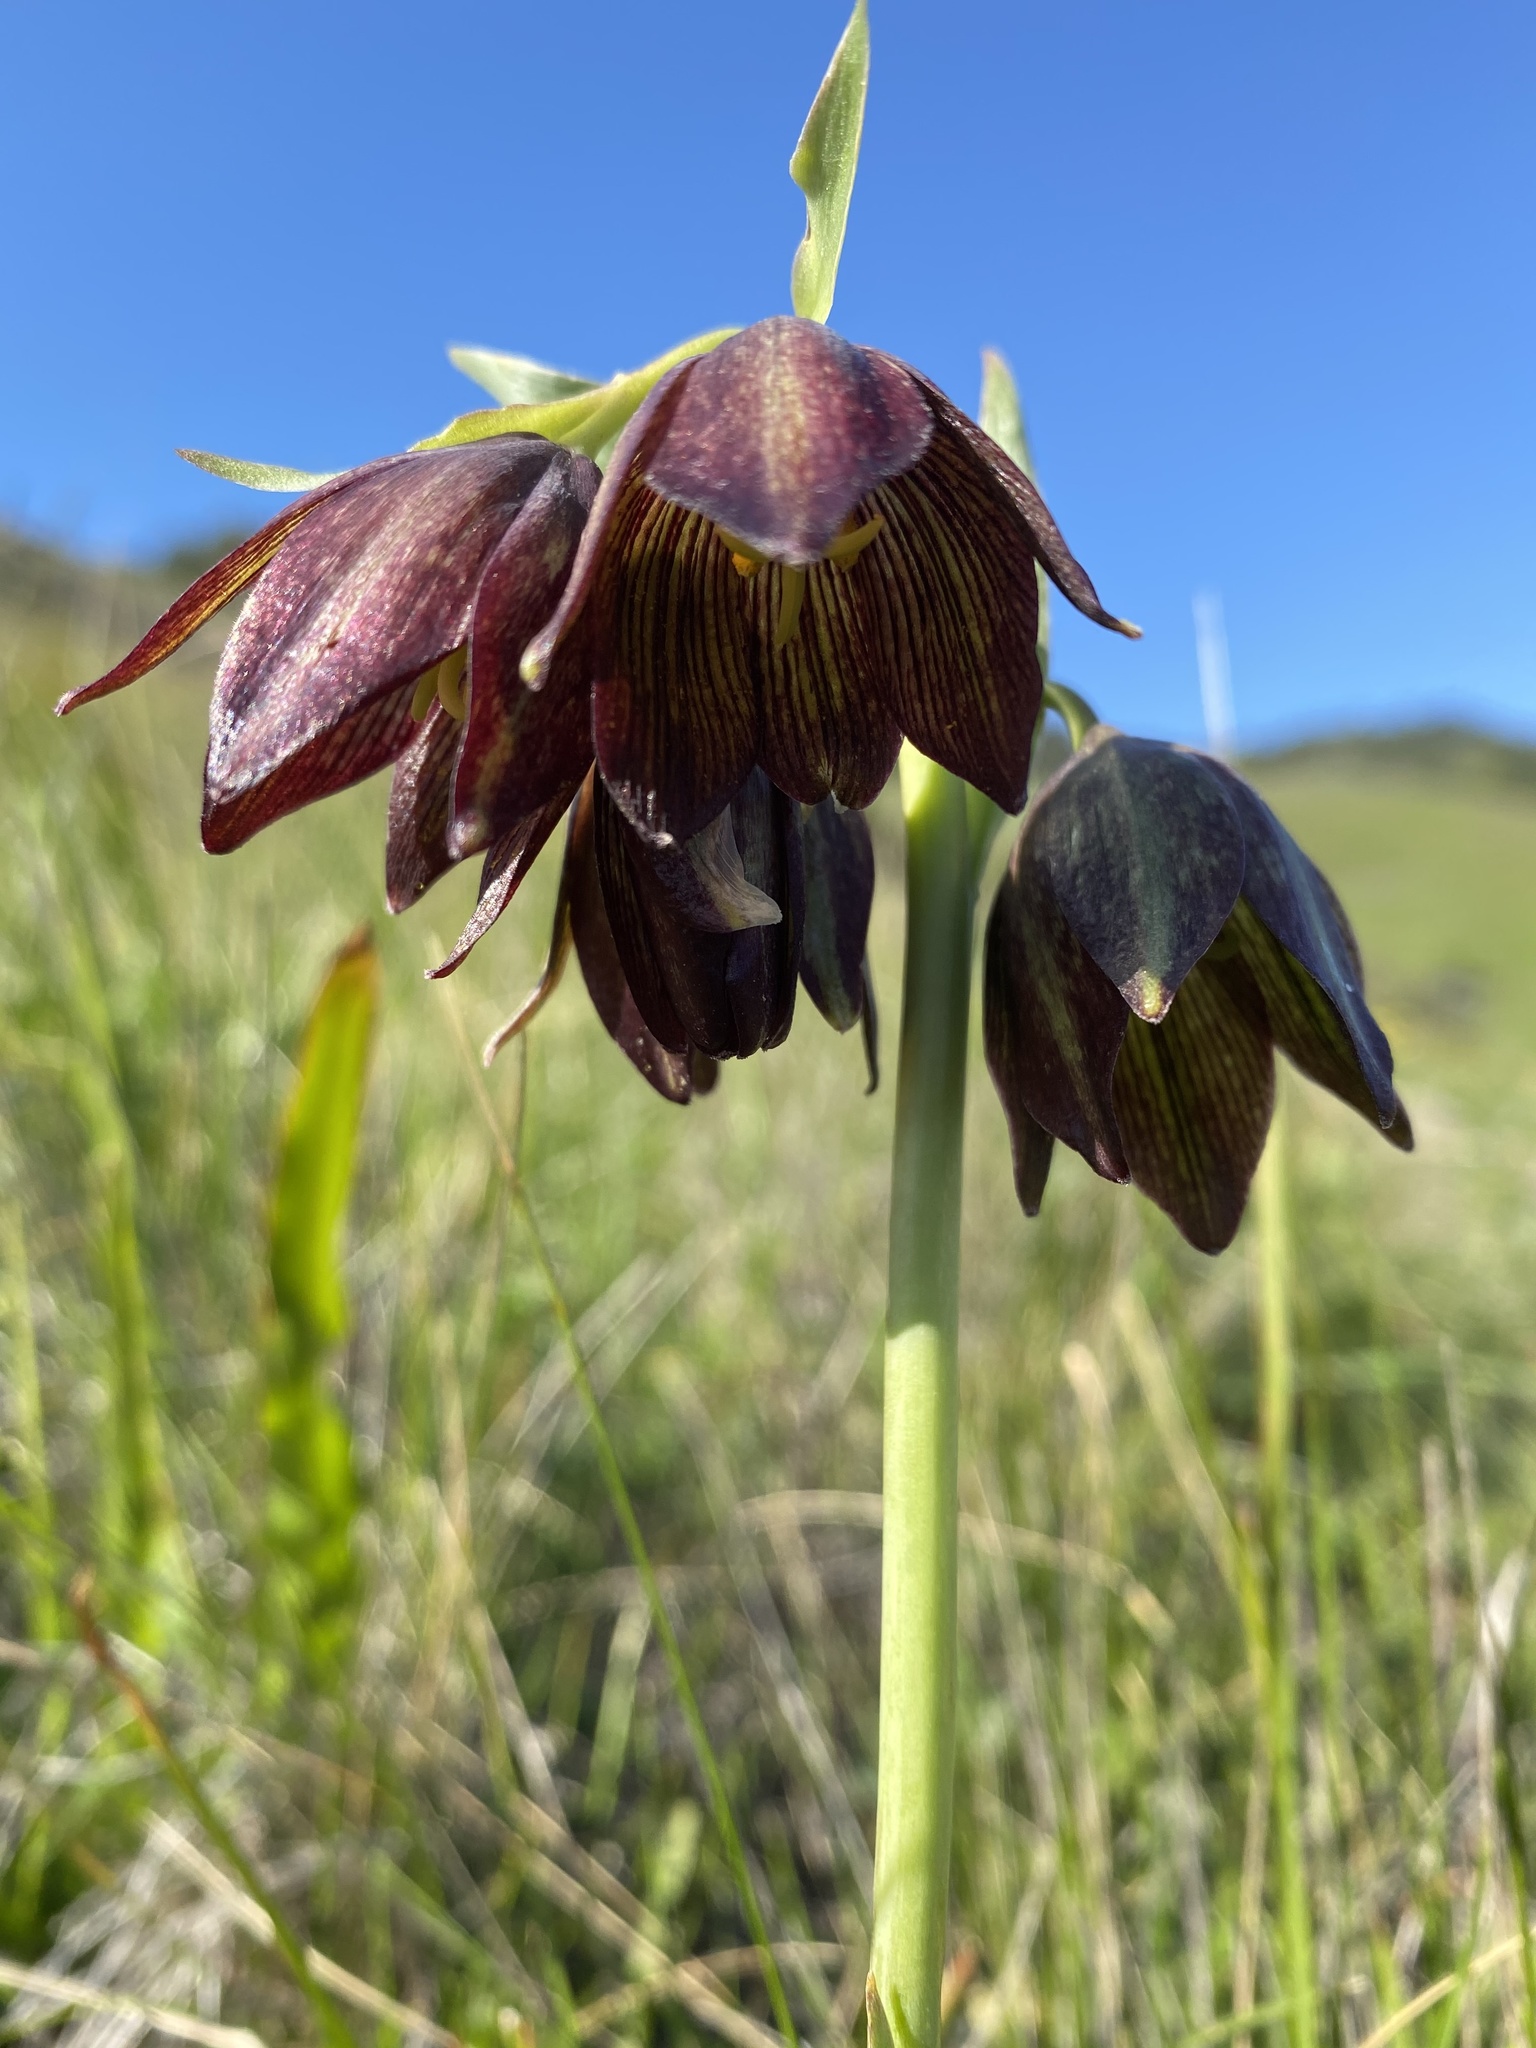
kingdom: Plantae
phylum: Tracheophyta
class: Liliopsida
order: Liliales
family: Liliaceae
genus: Fritillaria
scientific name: Fritillaria biflora
